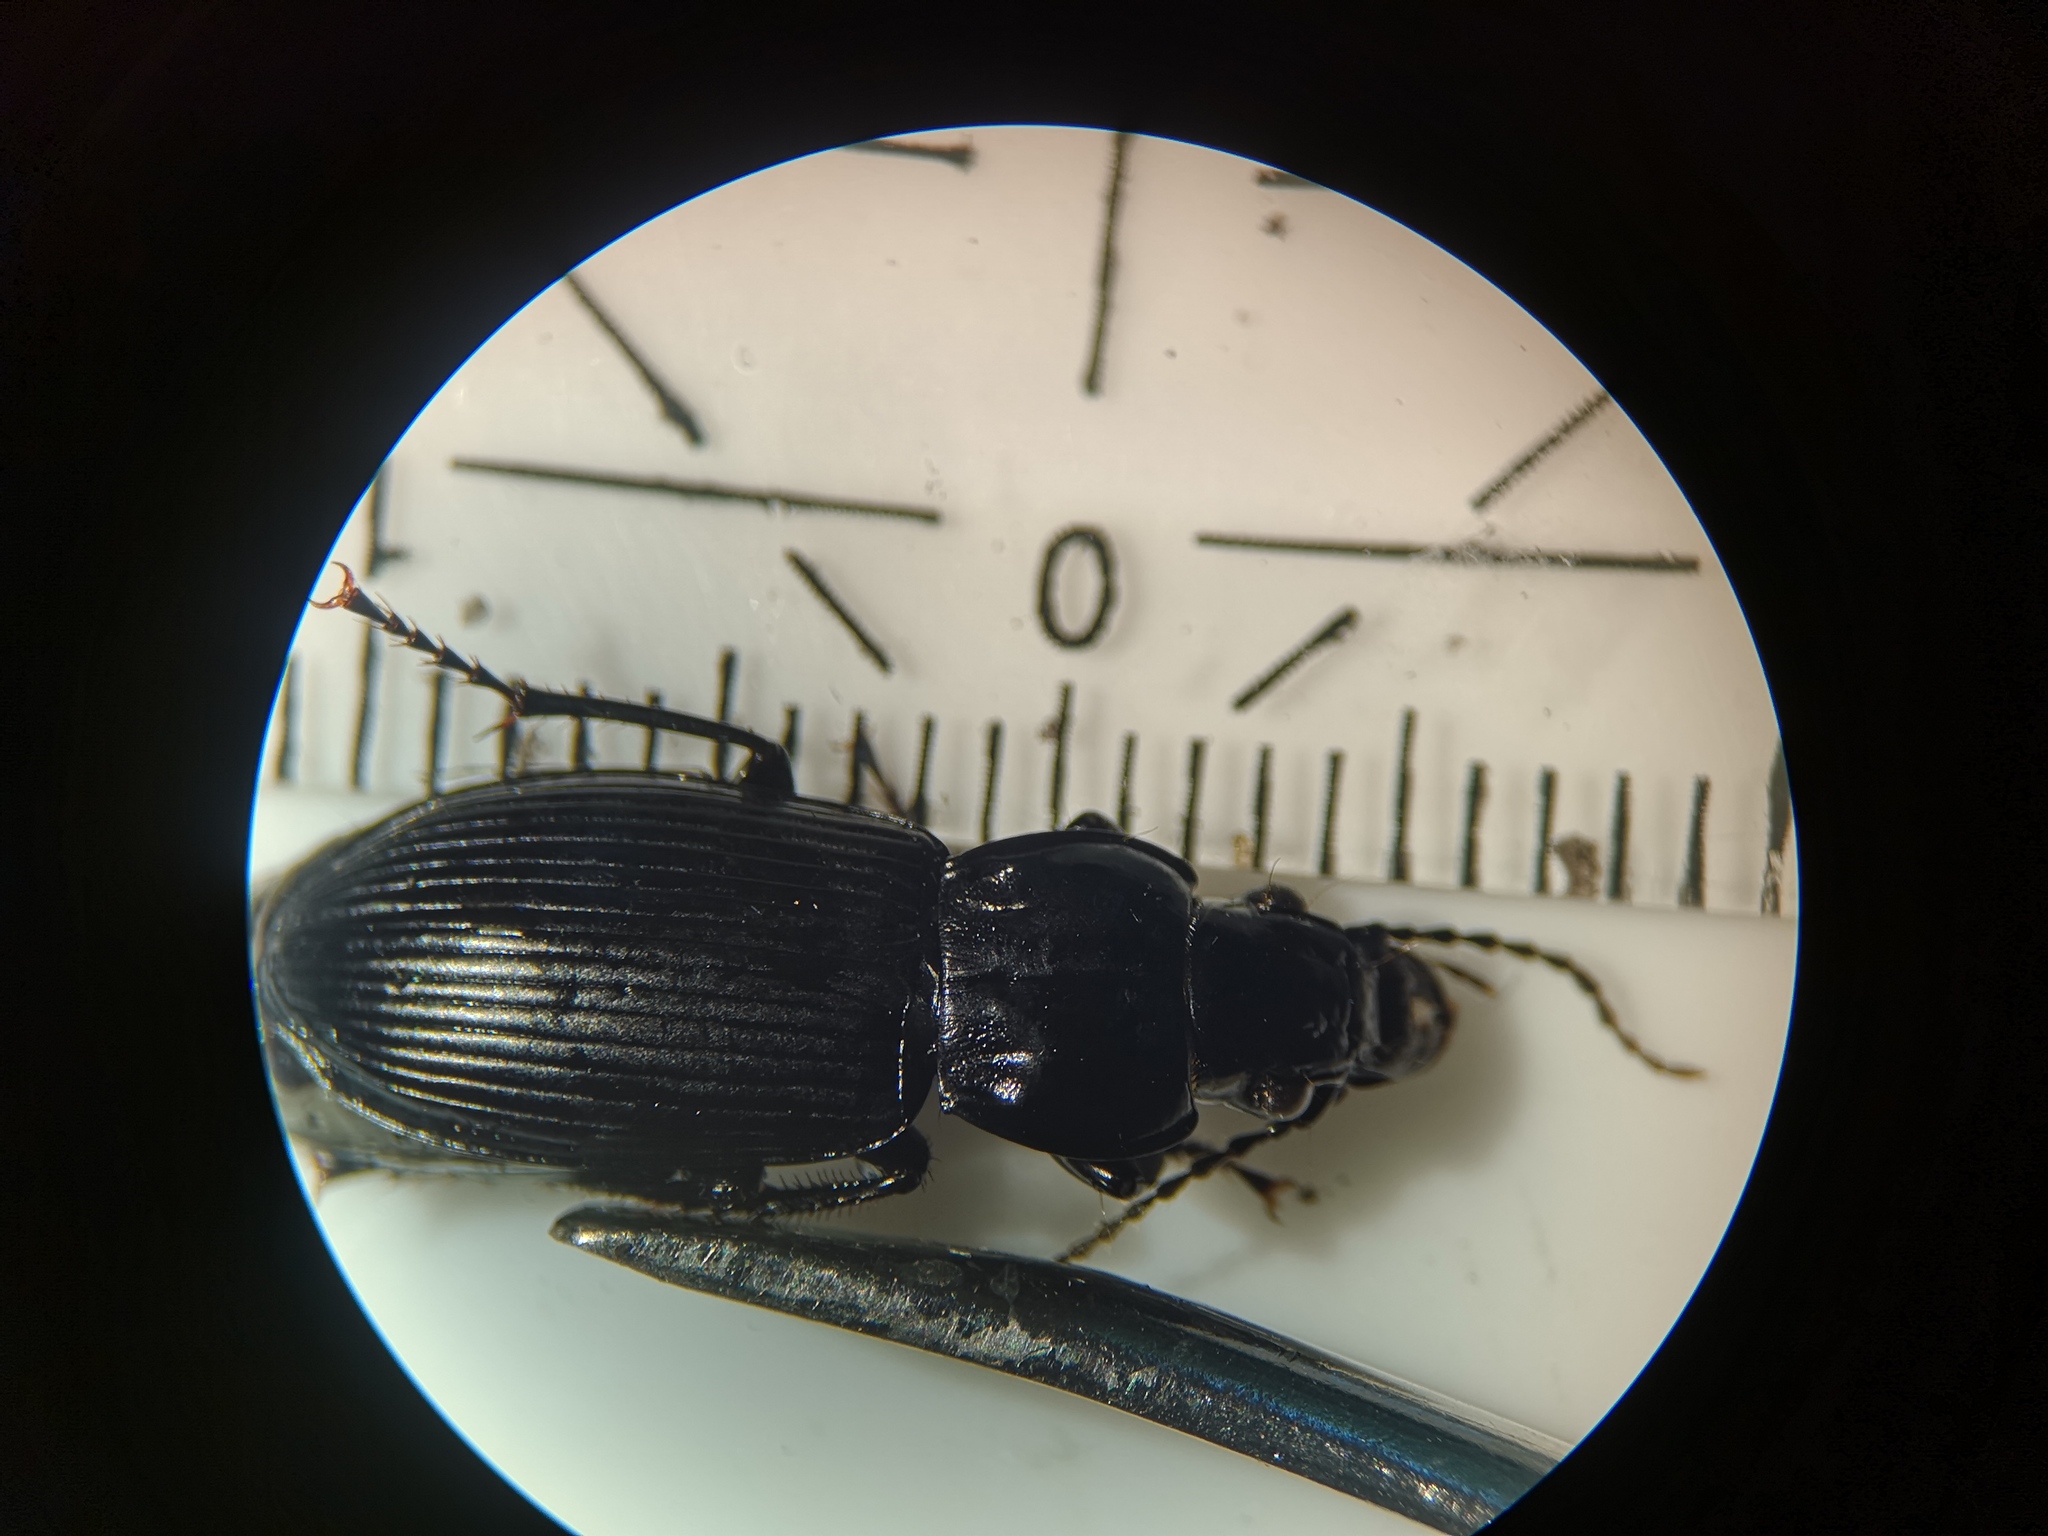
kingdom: Animalia
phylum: Arthropoda
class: Insecta
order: Coleoptera
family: Carabidae
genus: Pterostichus
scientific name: Pterostichus melanarius
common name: European dark harp ground beetle
